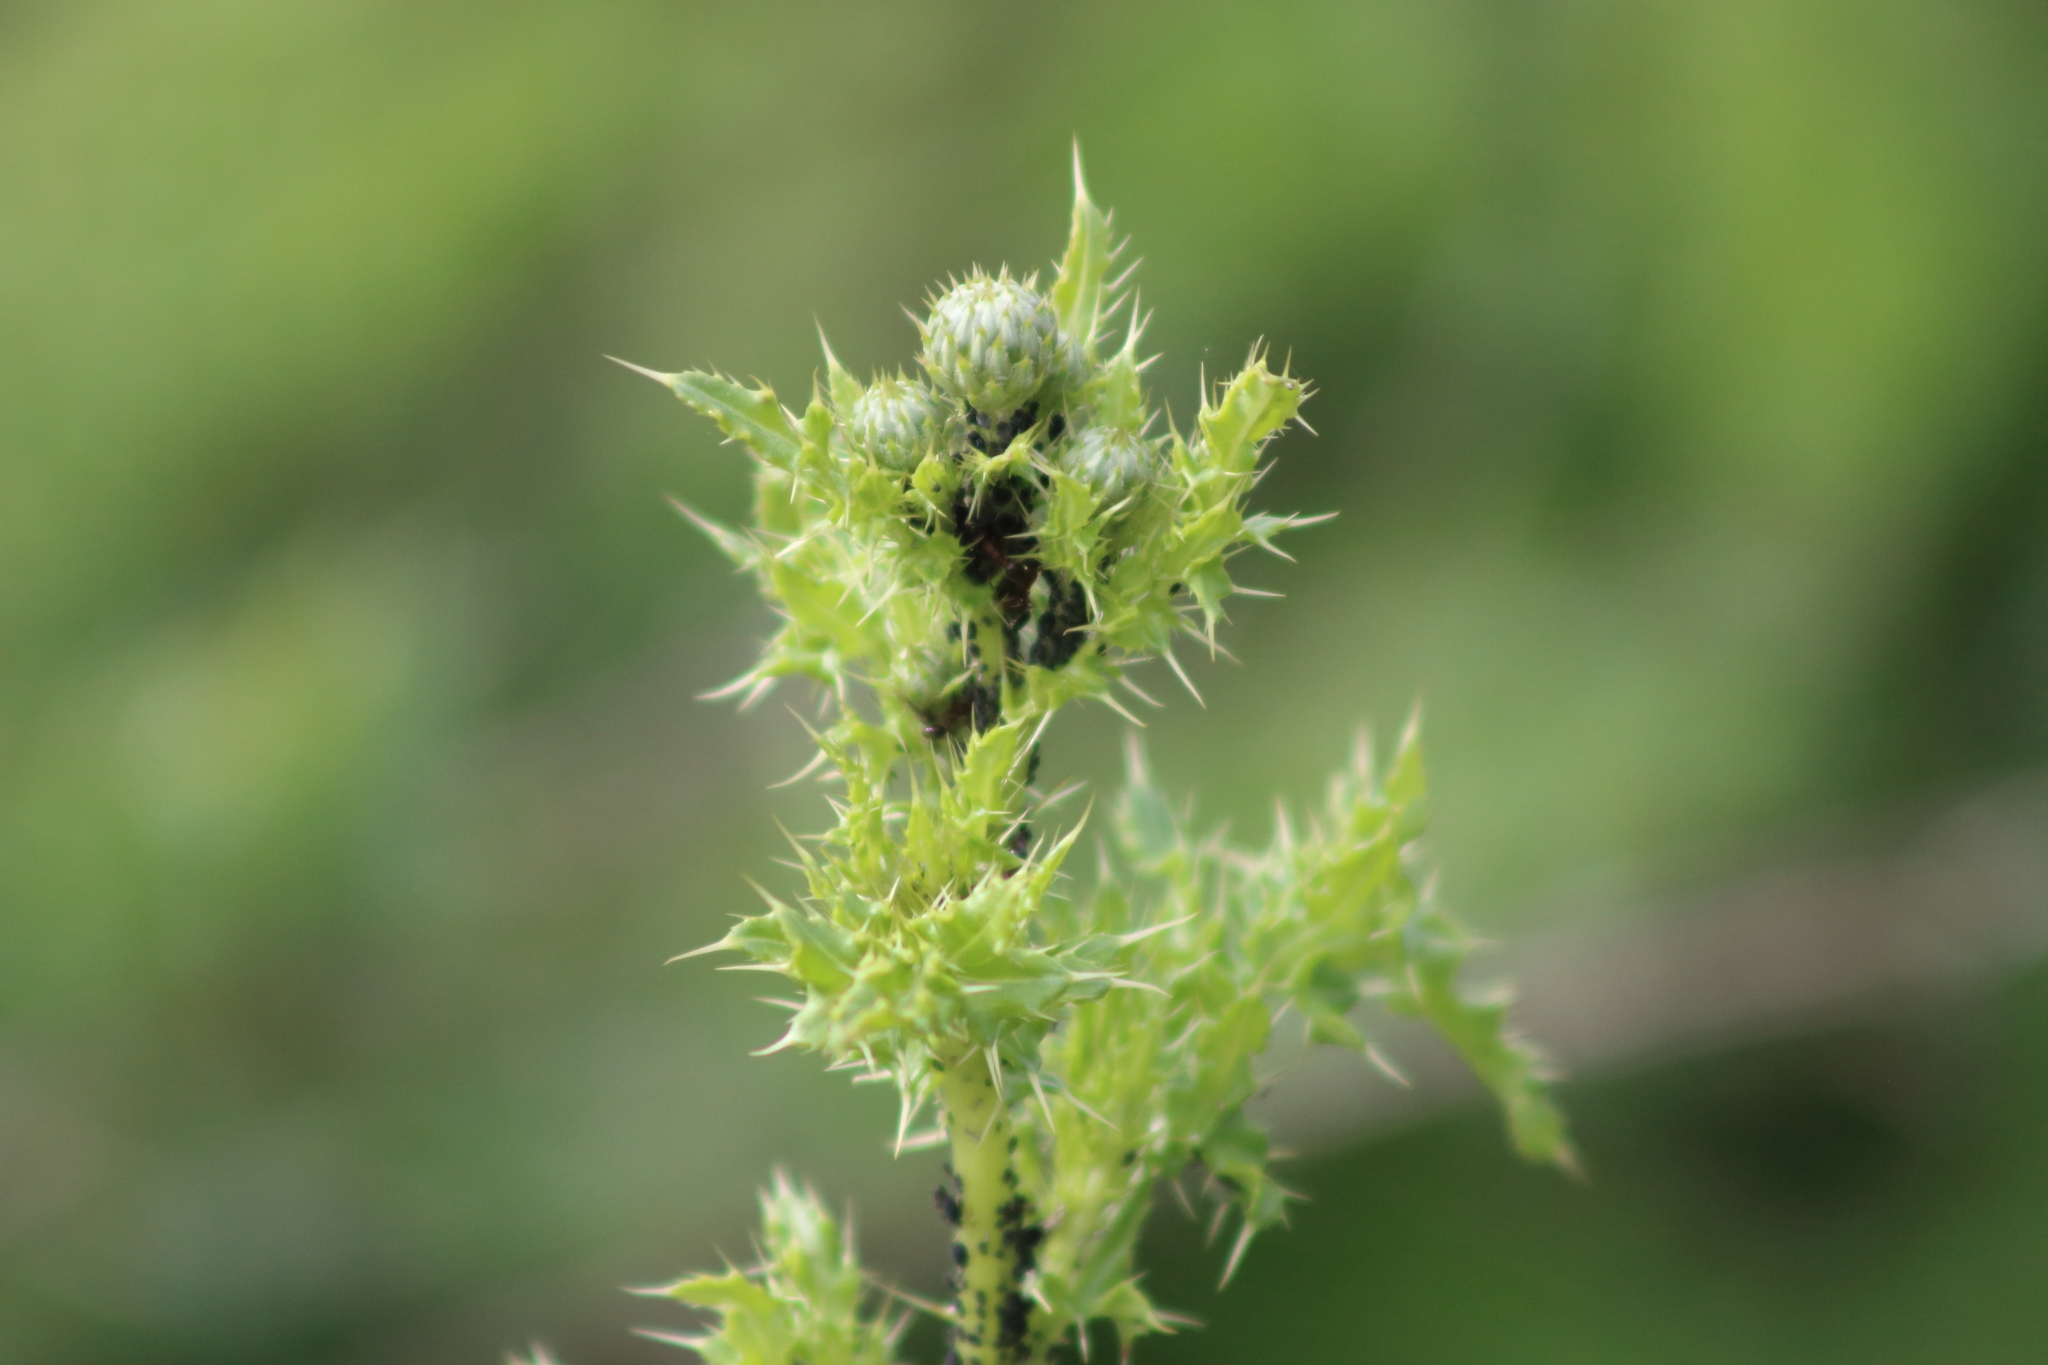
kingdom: Plantae
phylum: Tracheophyta
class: Magnoliopsida
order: Asterales
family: Asteraceae
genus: Cirsium
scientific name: Cirsium arvense
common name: Creeping thistle
